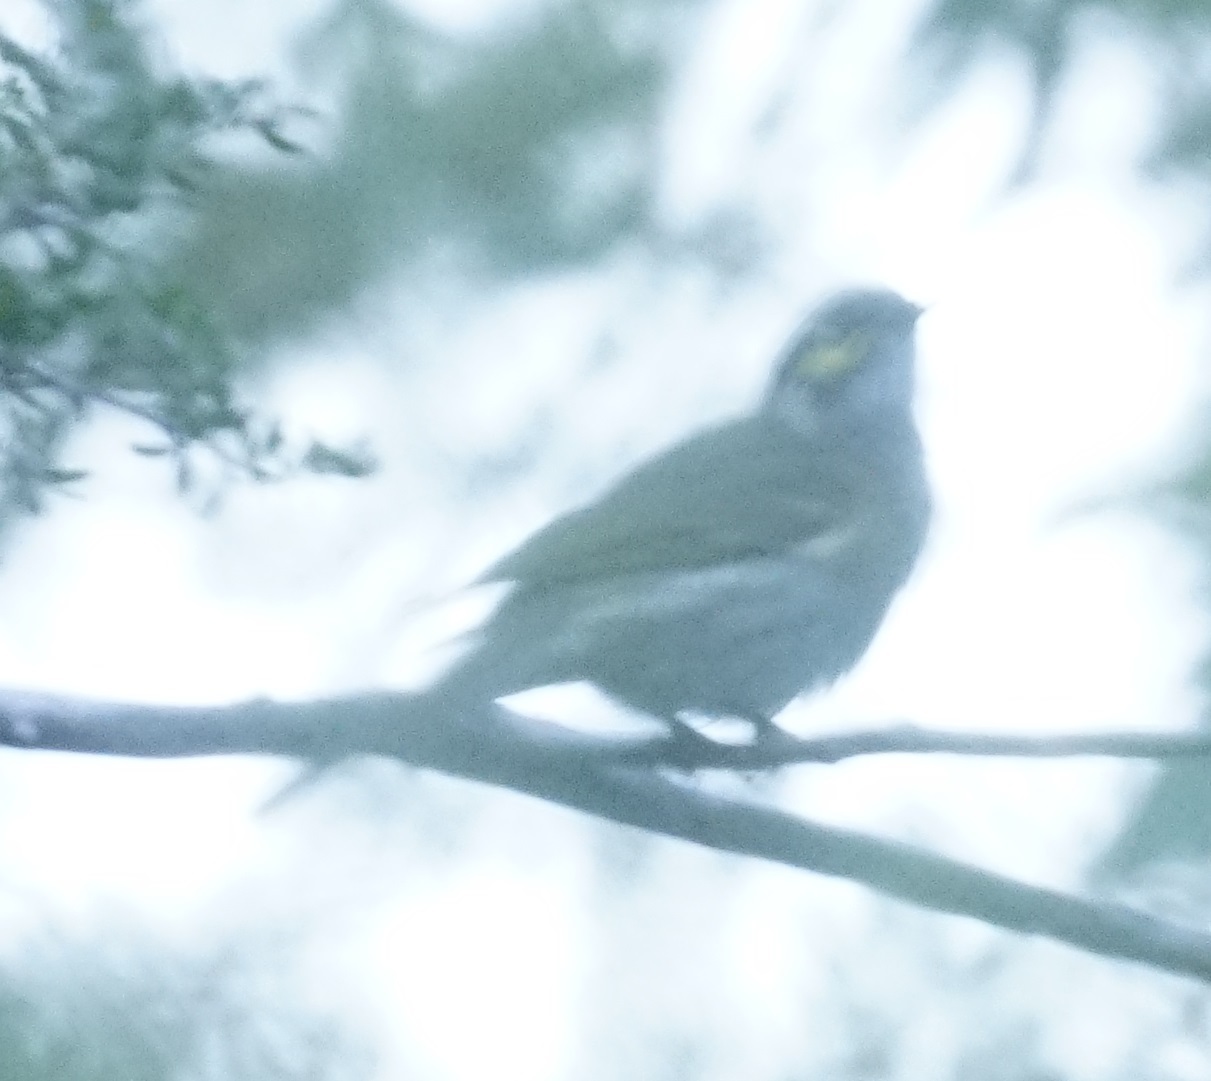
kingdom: Animalia
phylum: Chordata
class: Aves
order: Passeriformes
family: Meliphagidae
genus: Caligavis
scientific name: Caligavis chrysops
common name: Yellow-faced honeyeater
